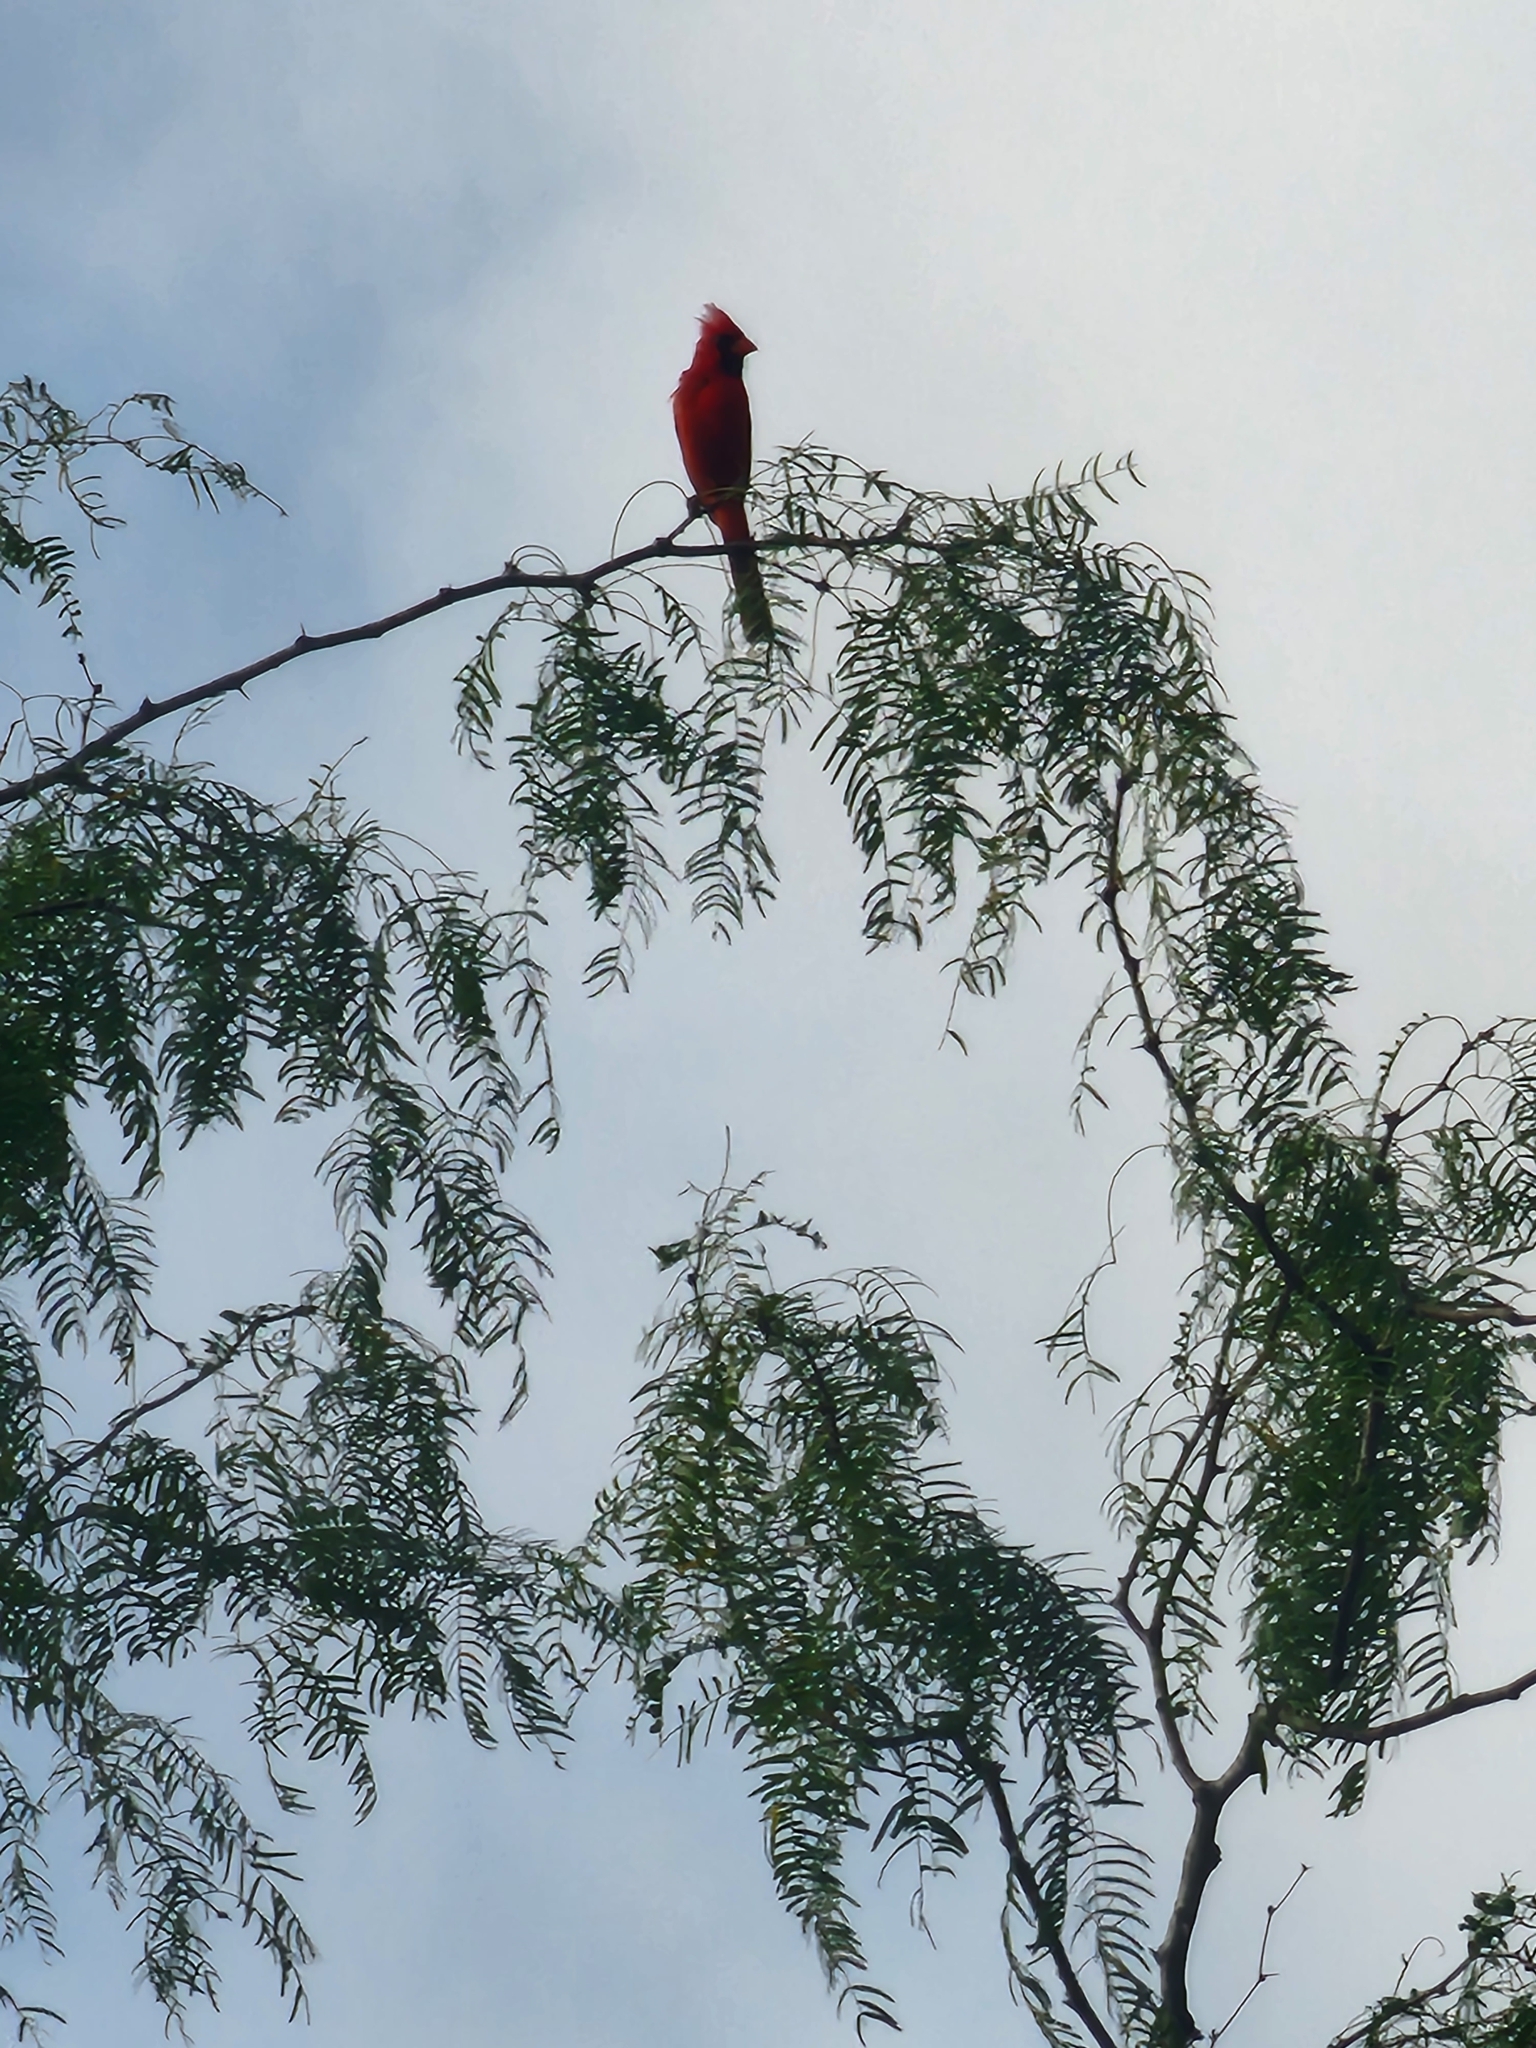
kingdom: Animalia
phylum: Chordata
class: Aves
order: Passeriformes
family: Cardinalidae
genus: Cardinalis
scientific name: Cardinalis cardinalis
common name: Northern cardinal
